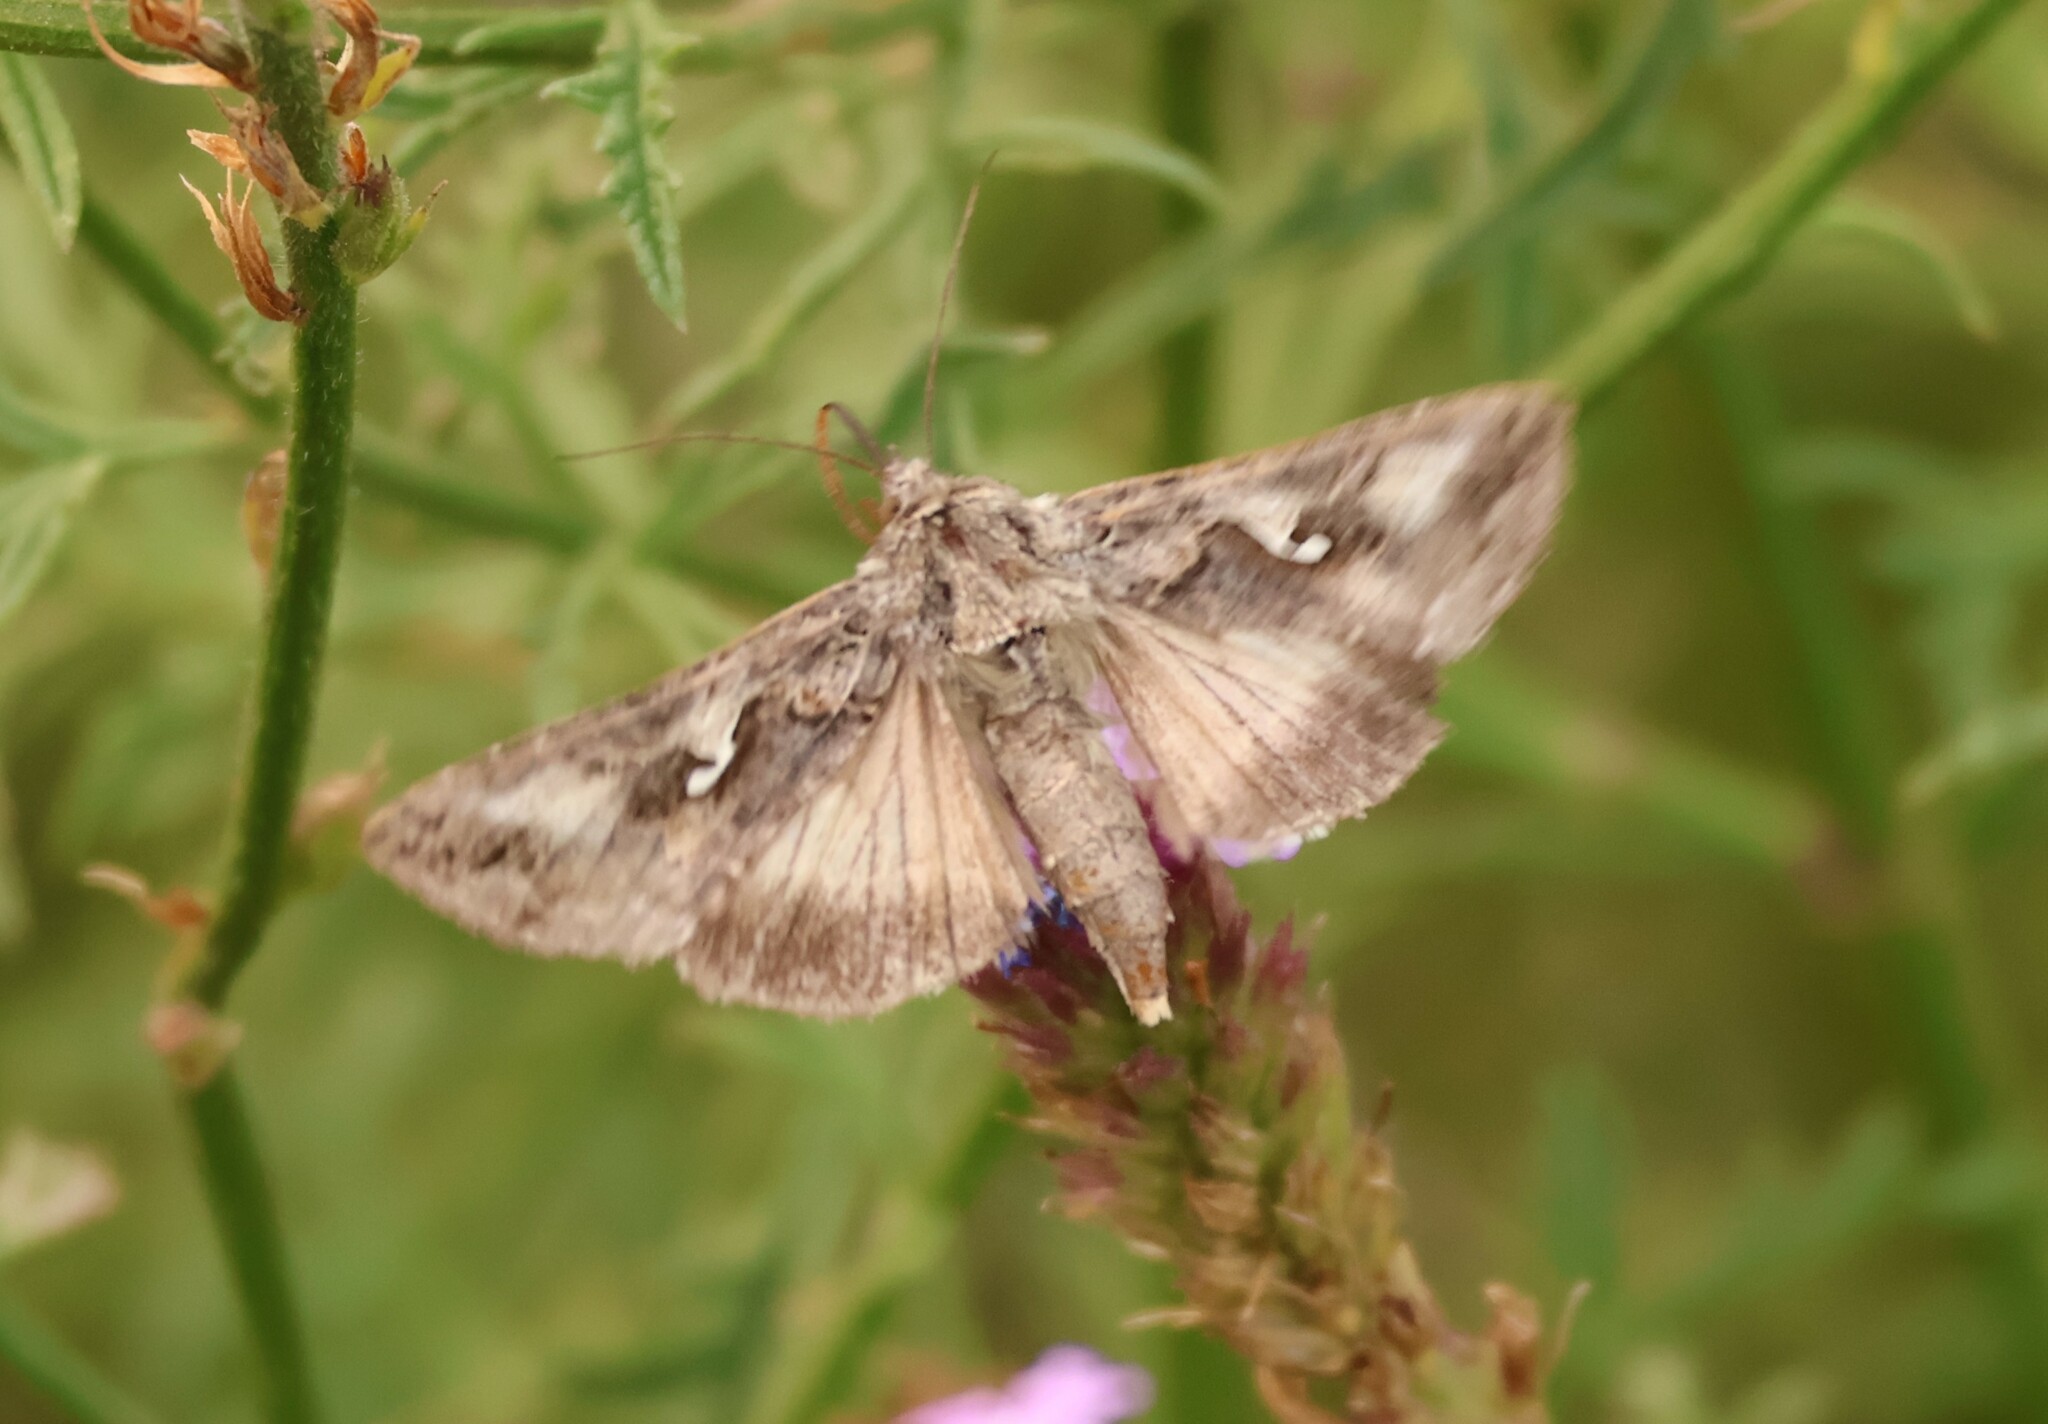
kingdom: Animalia
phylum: Arthropoda
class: Insecta
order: Lepidoptera
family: Noctuidae
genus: Autographa
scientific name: Autographa californica
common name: Alfalfa looper
